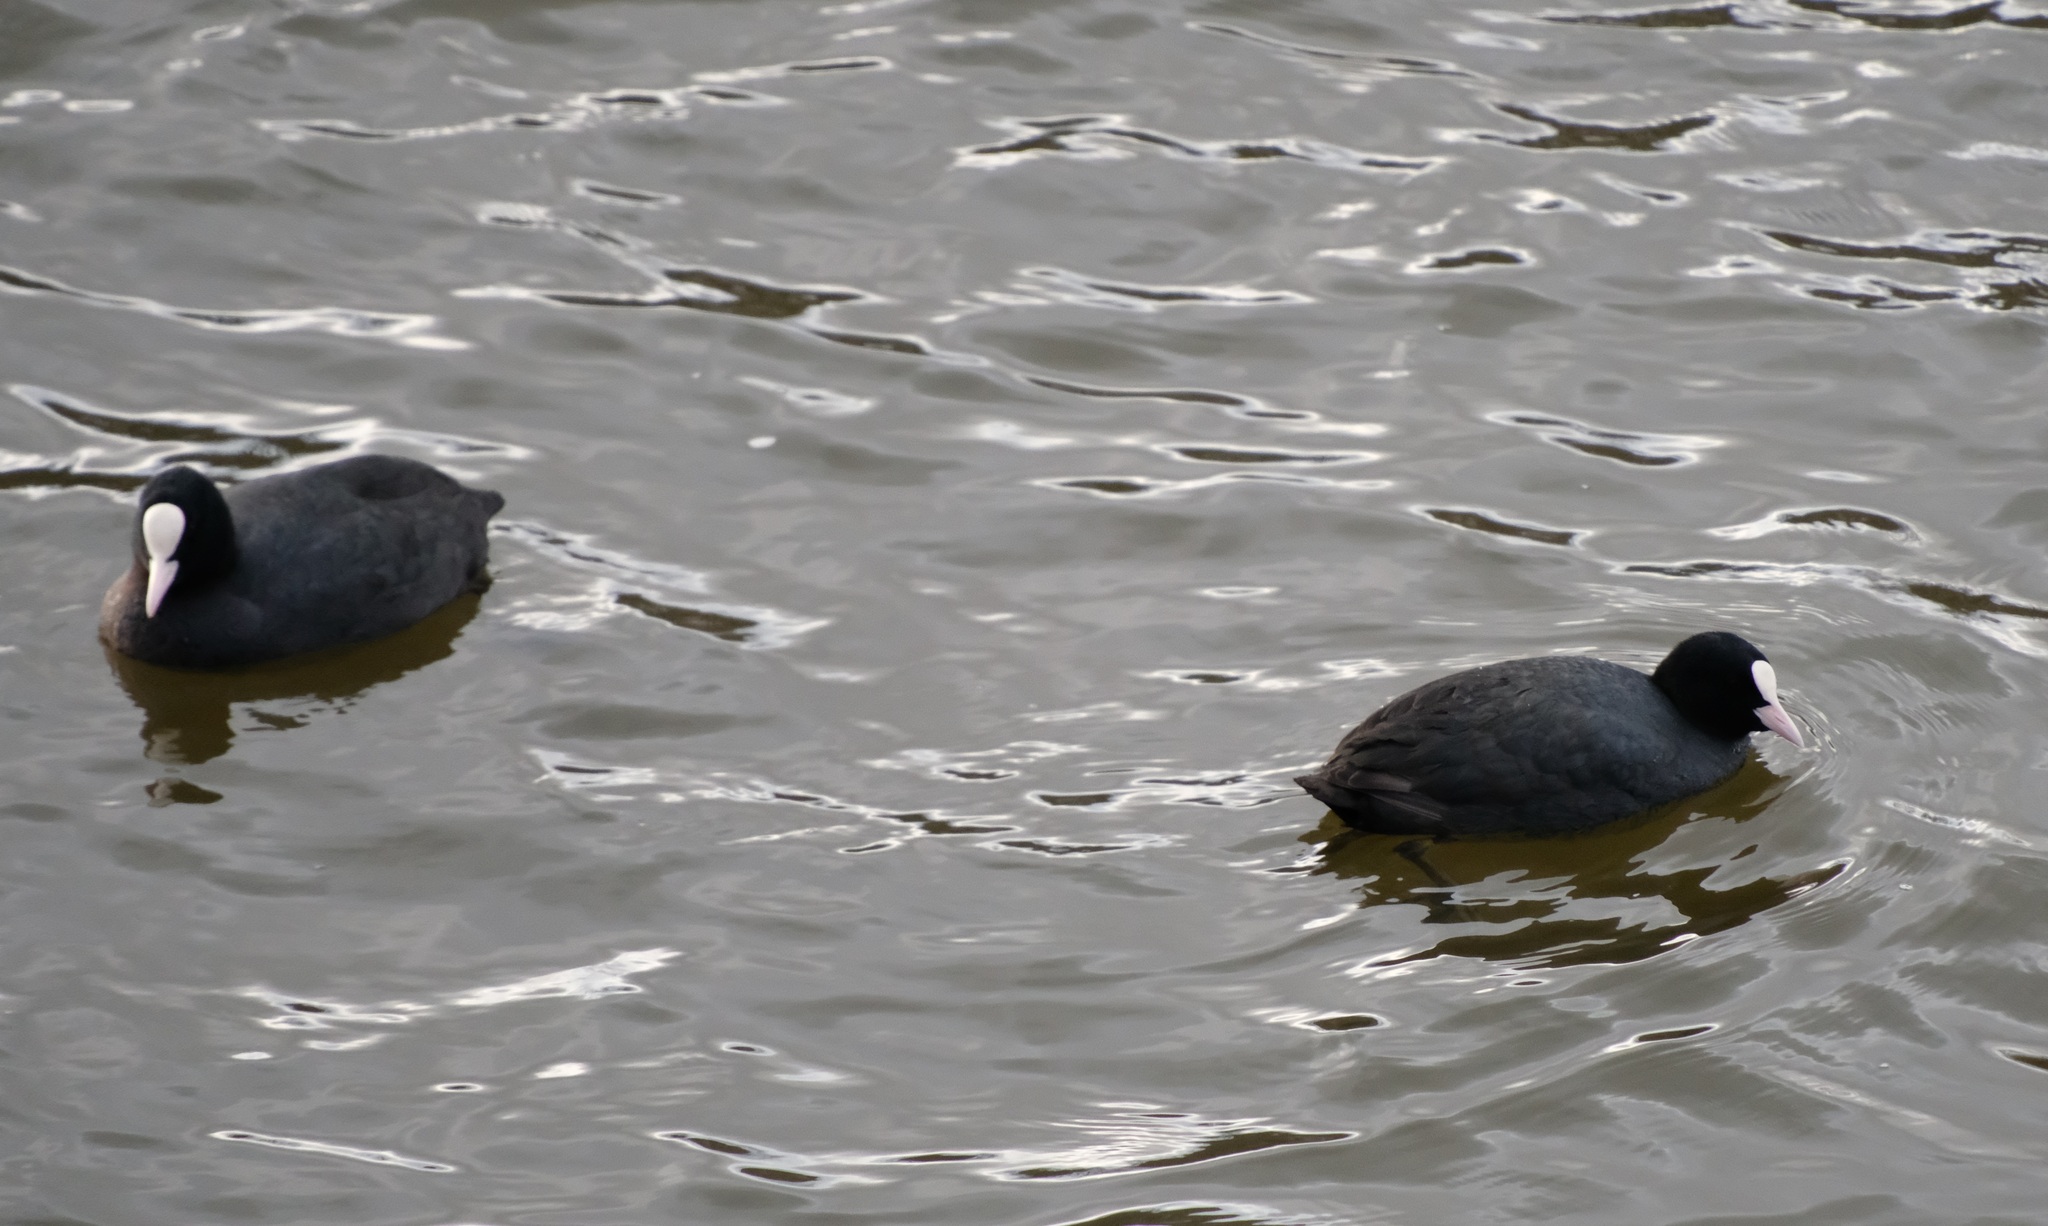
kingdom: Animalia
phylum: Chordata
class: Aves
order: Gruiformes
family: Rallidae
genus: Fulica
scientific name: Fulica atra
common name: Eurasian coot
